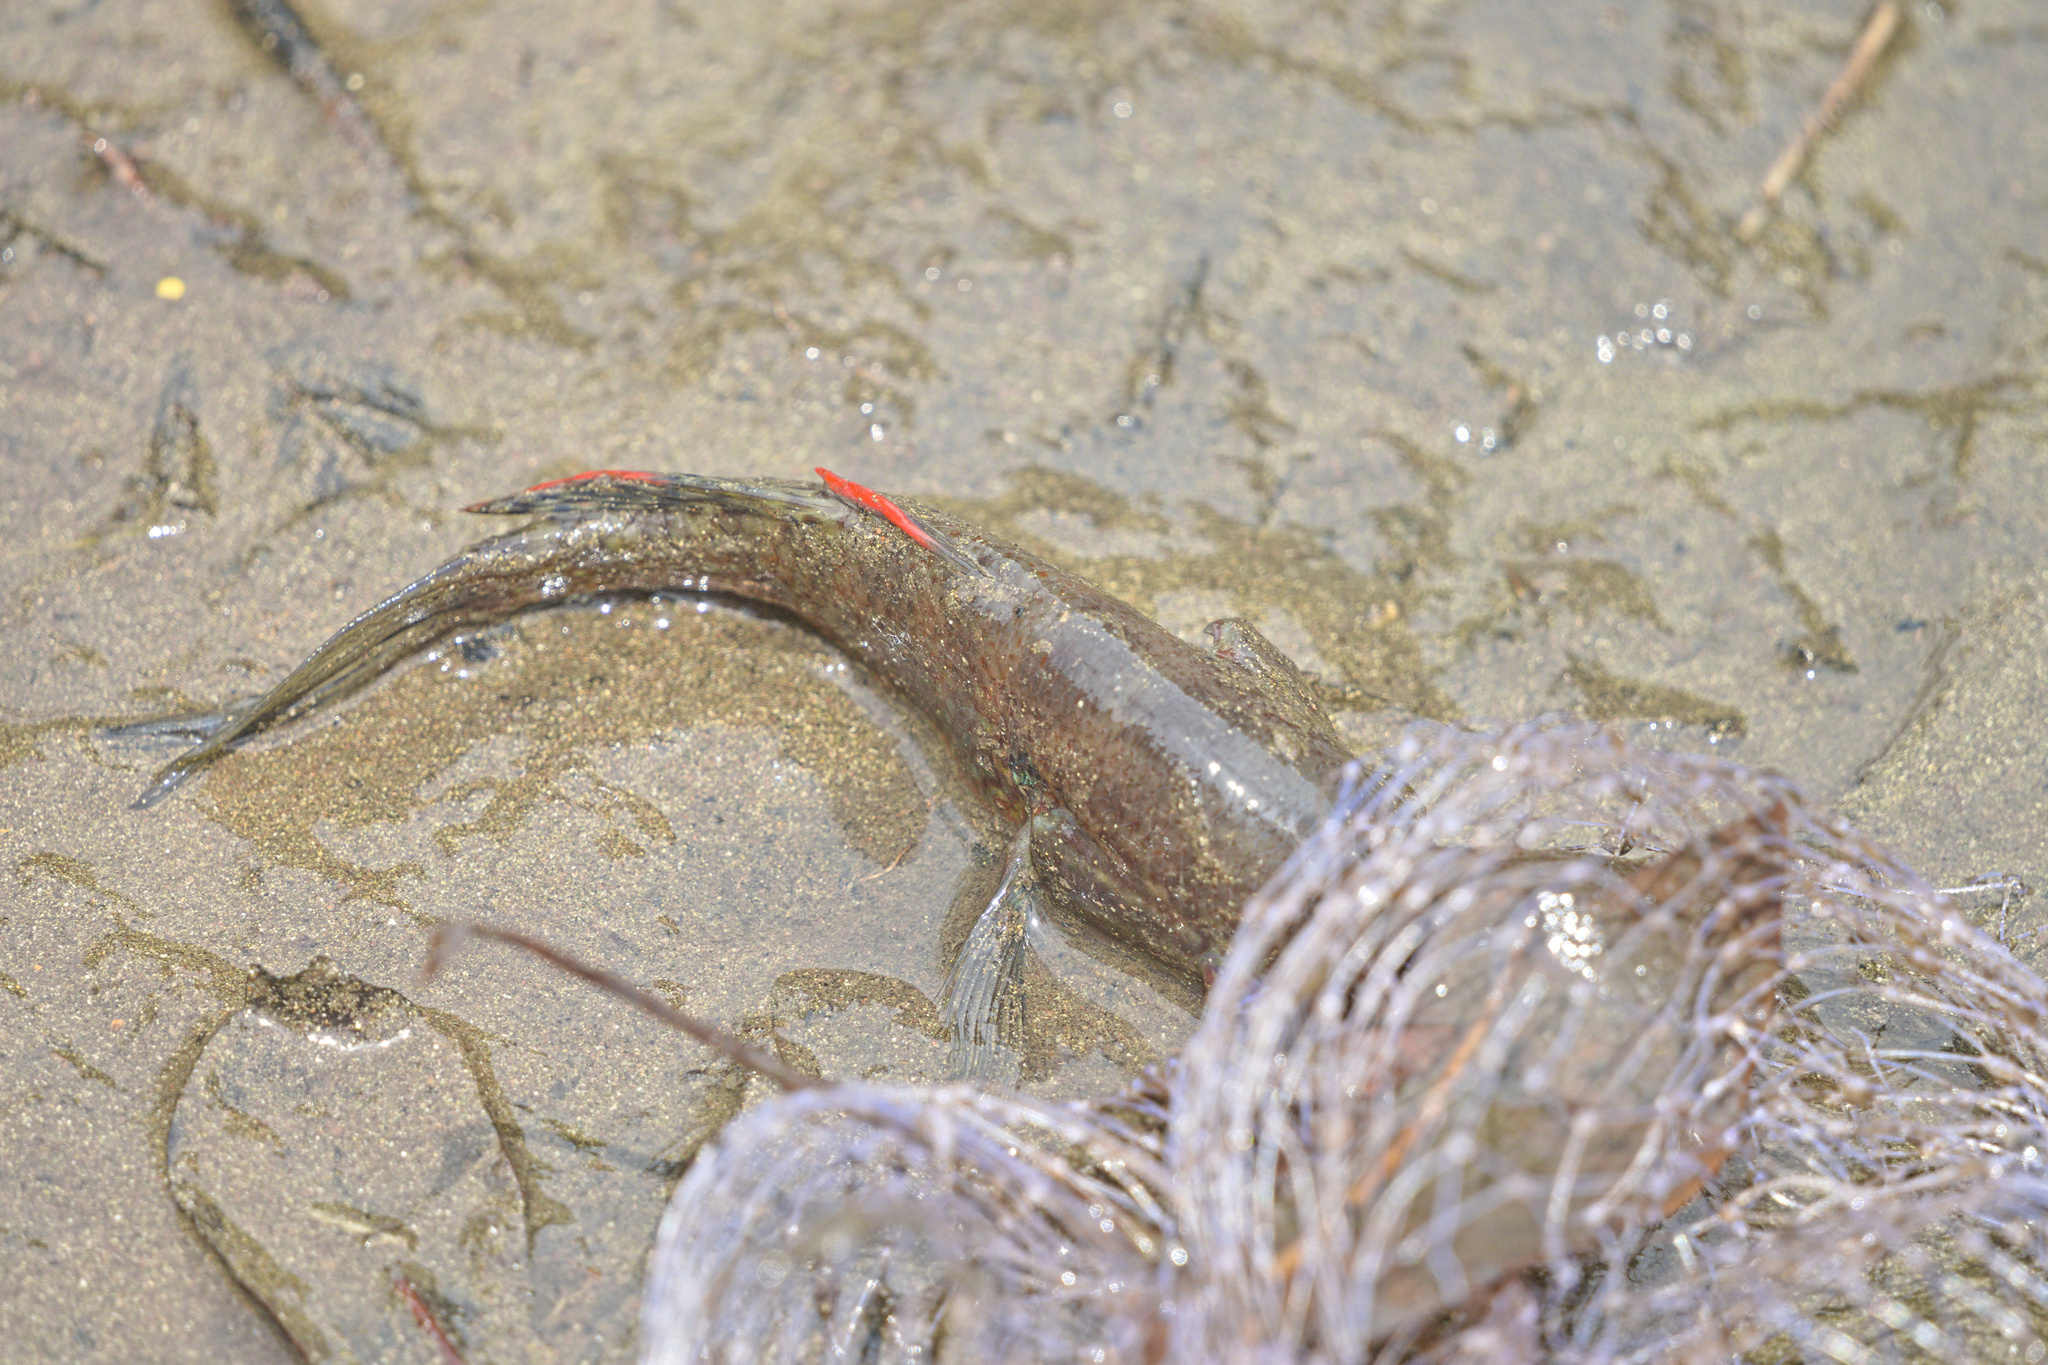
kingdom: Animalia
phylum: Chordata
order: Perciformes
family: Eleotridae
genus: Dormitator
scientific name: Dormitator latifrons
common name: Pacific fat sleeper
